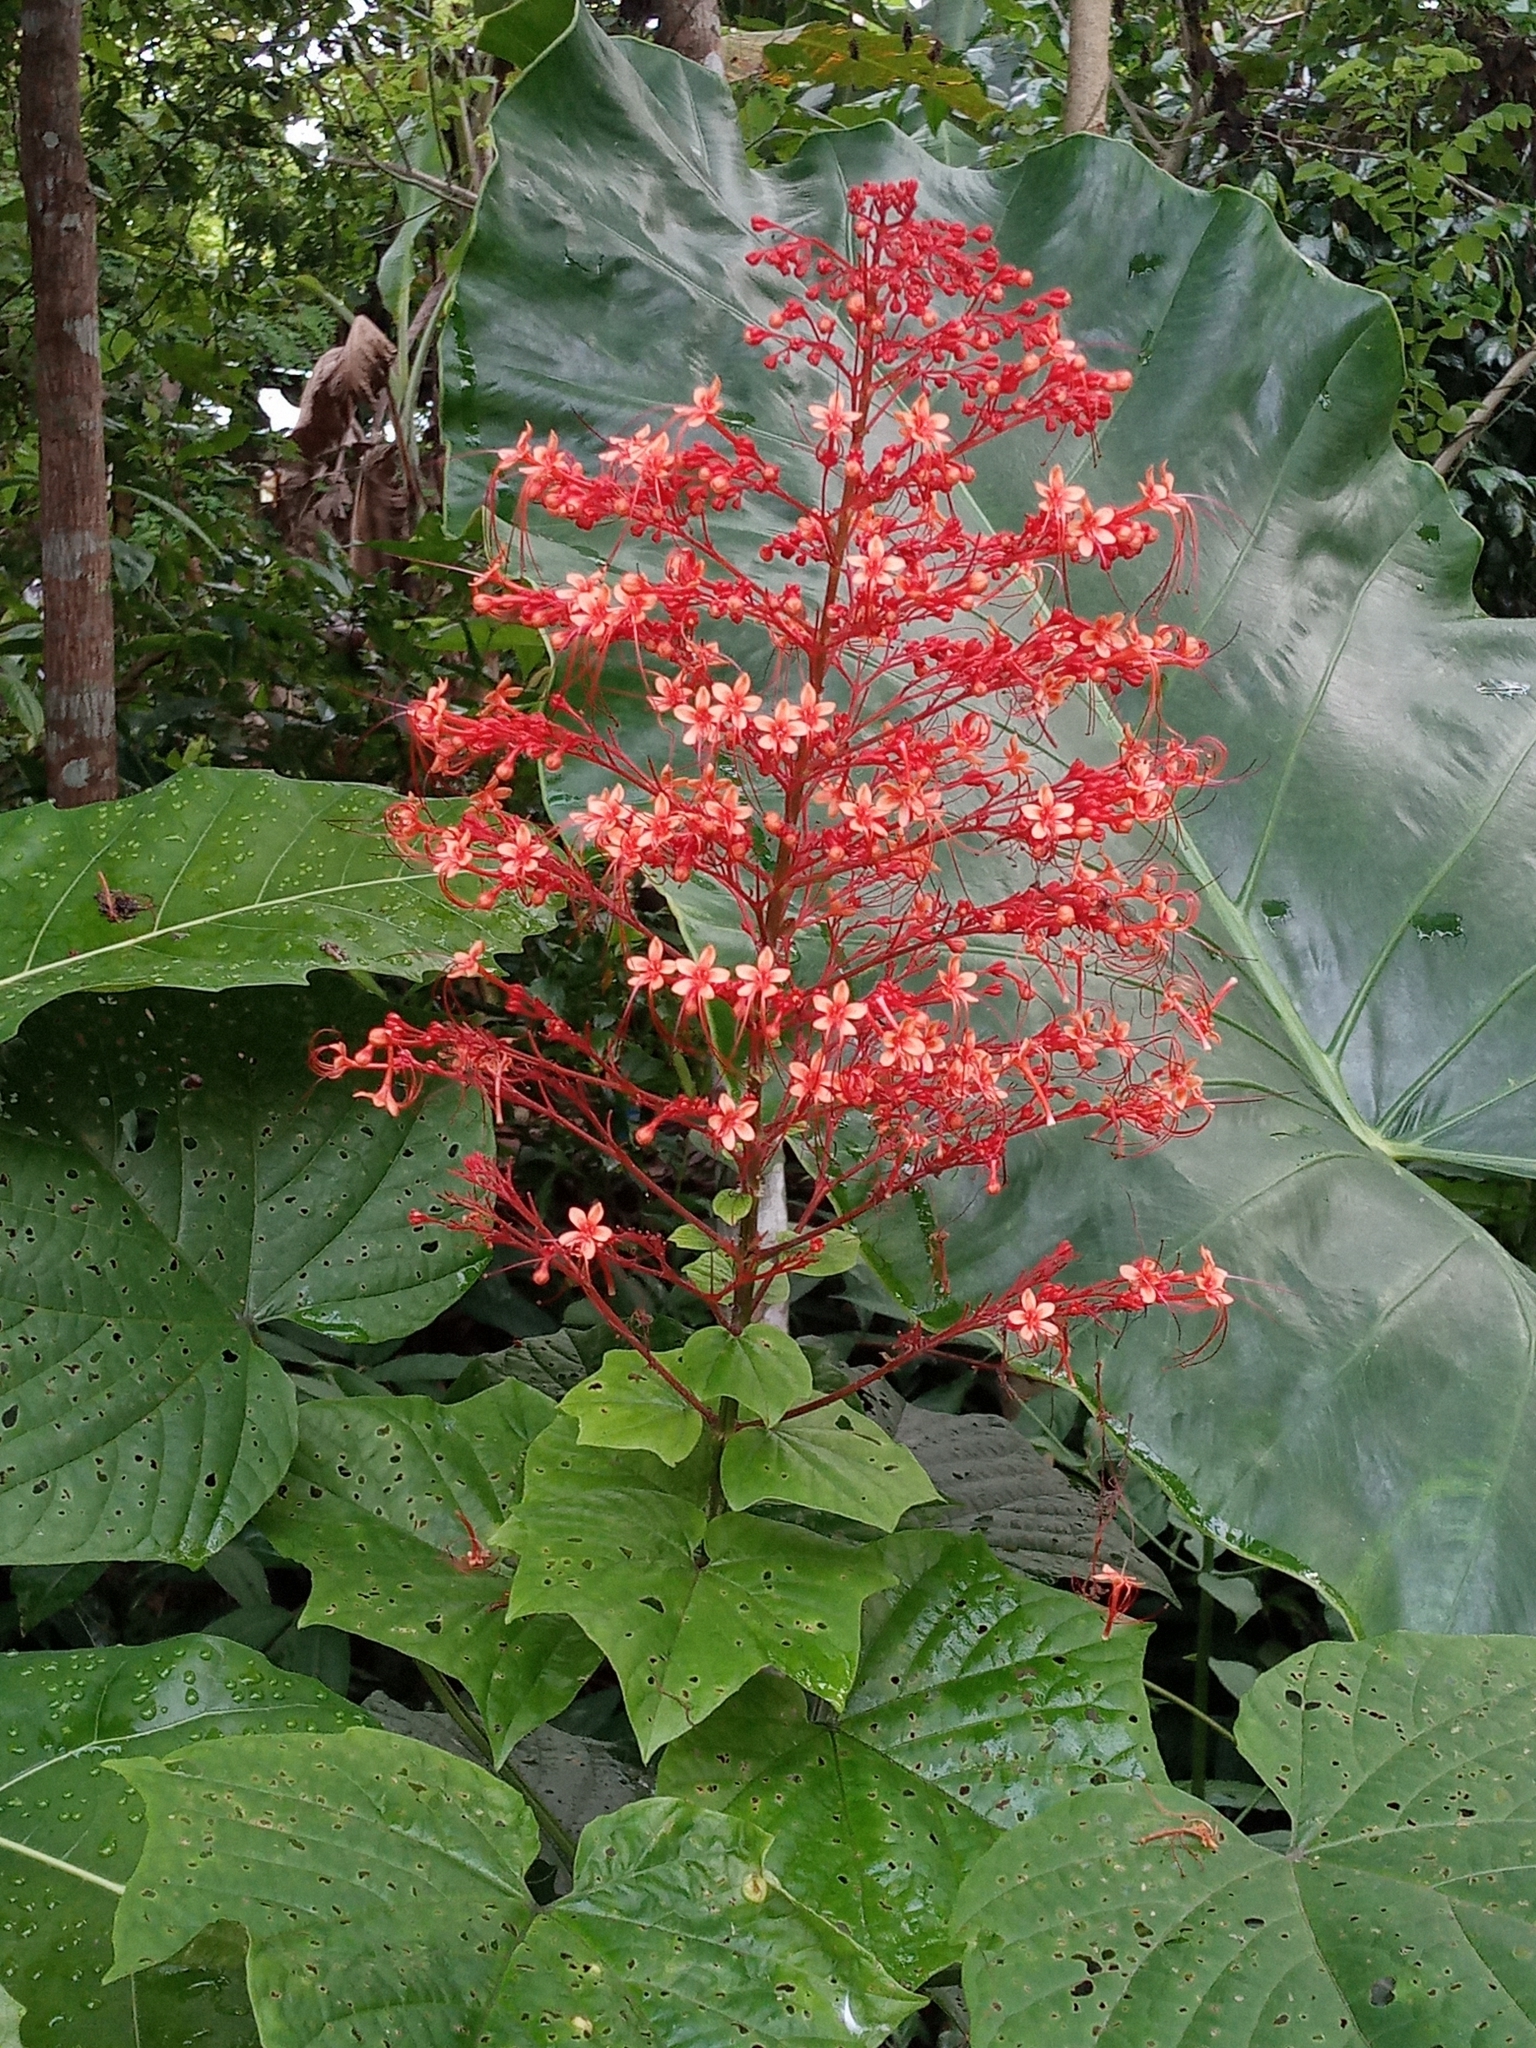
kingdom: Plantae
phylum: Tracheophyta
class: Magnoliopsida
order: Lamiales
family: Lamiaceae
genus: Clerodendrum
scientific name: Clerodendrum paniculatum
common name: Pagoda-flower
